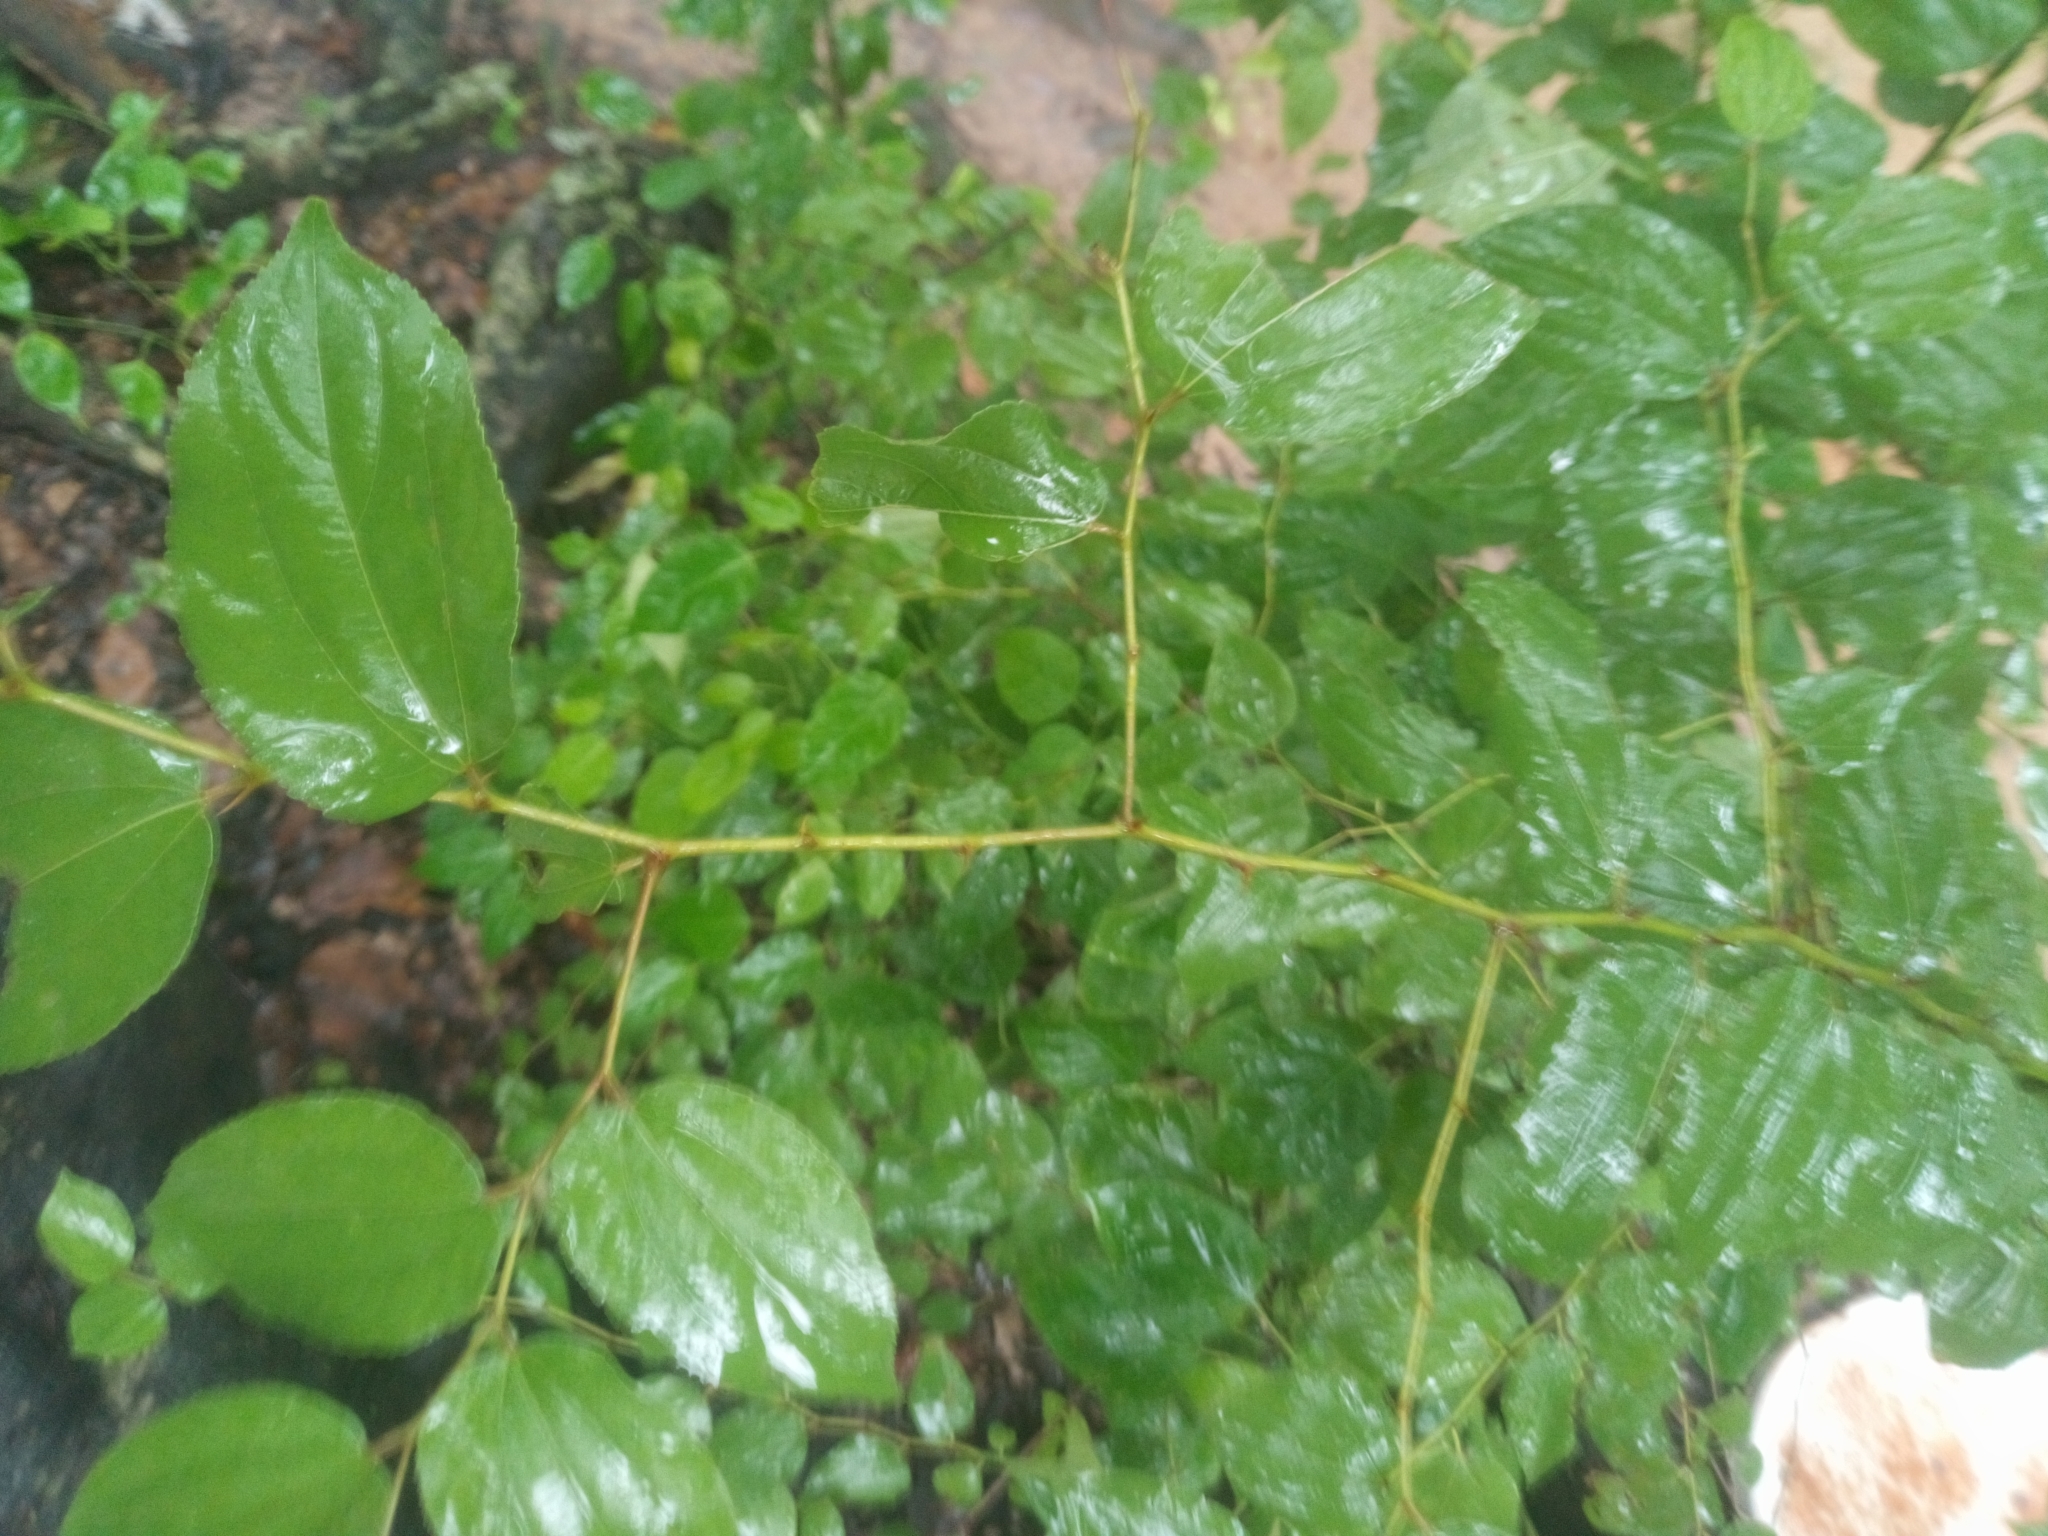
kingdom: Plantae
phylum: Tracheophyta
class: Magnoliopsida
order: Rosales
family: Rhamnaceae
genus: Ziziphus
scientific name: Ziziphus mucronata
